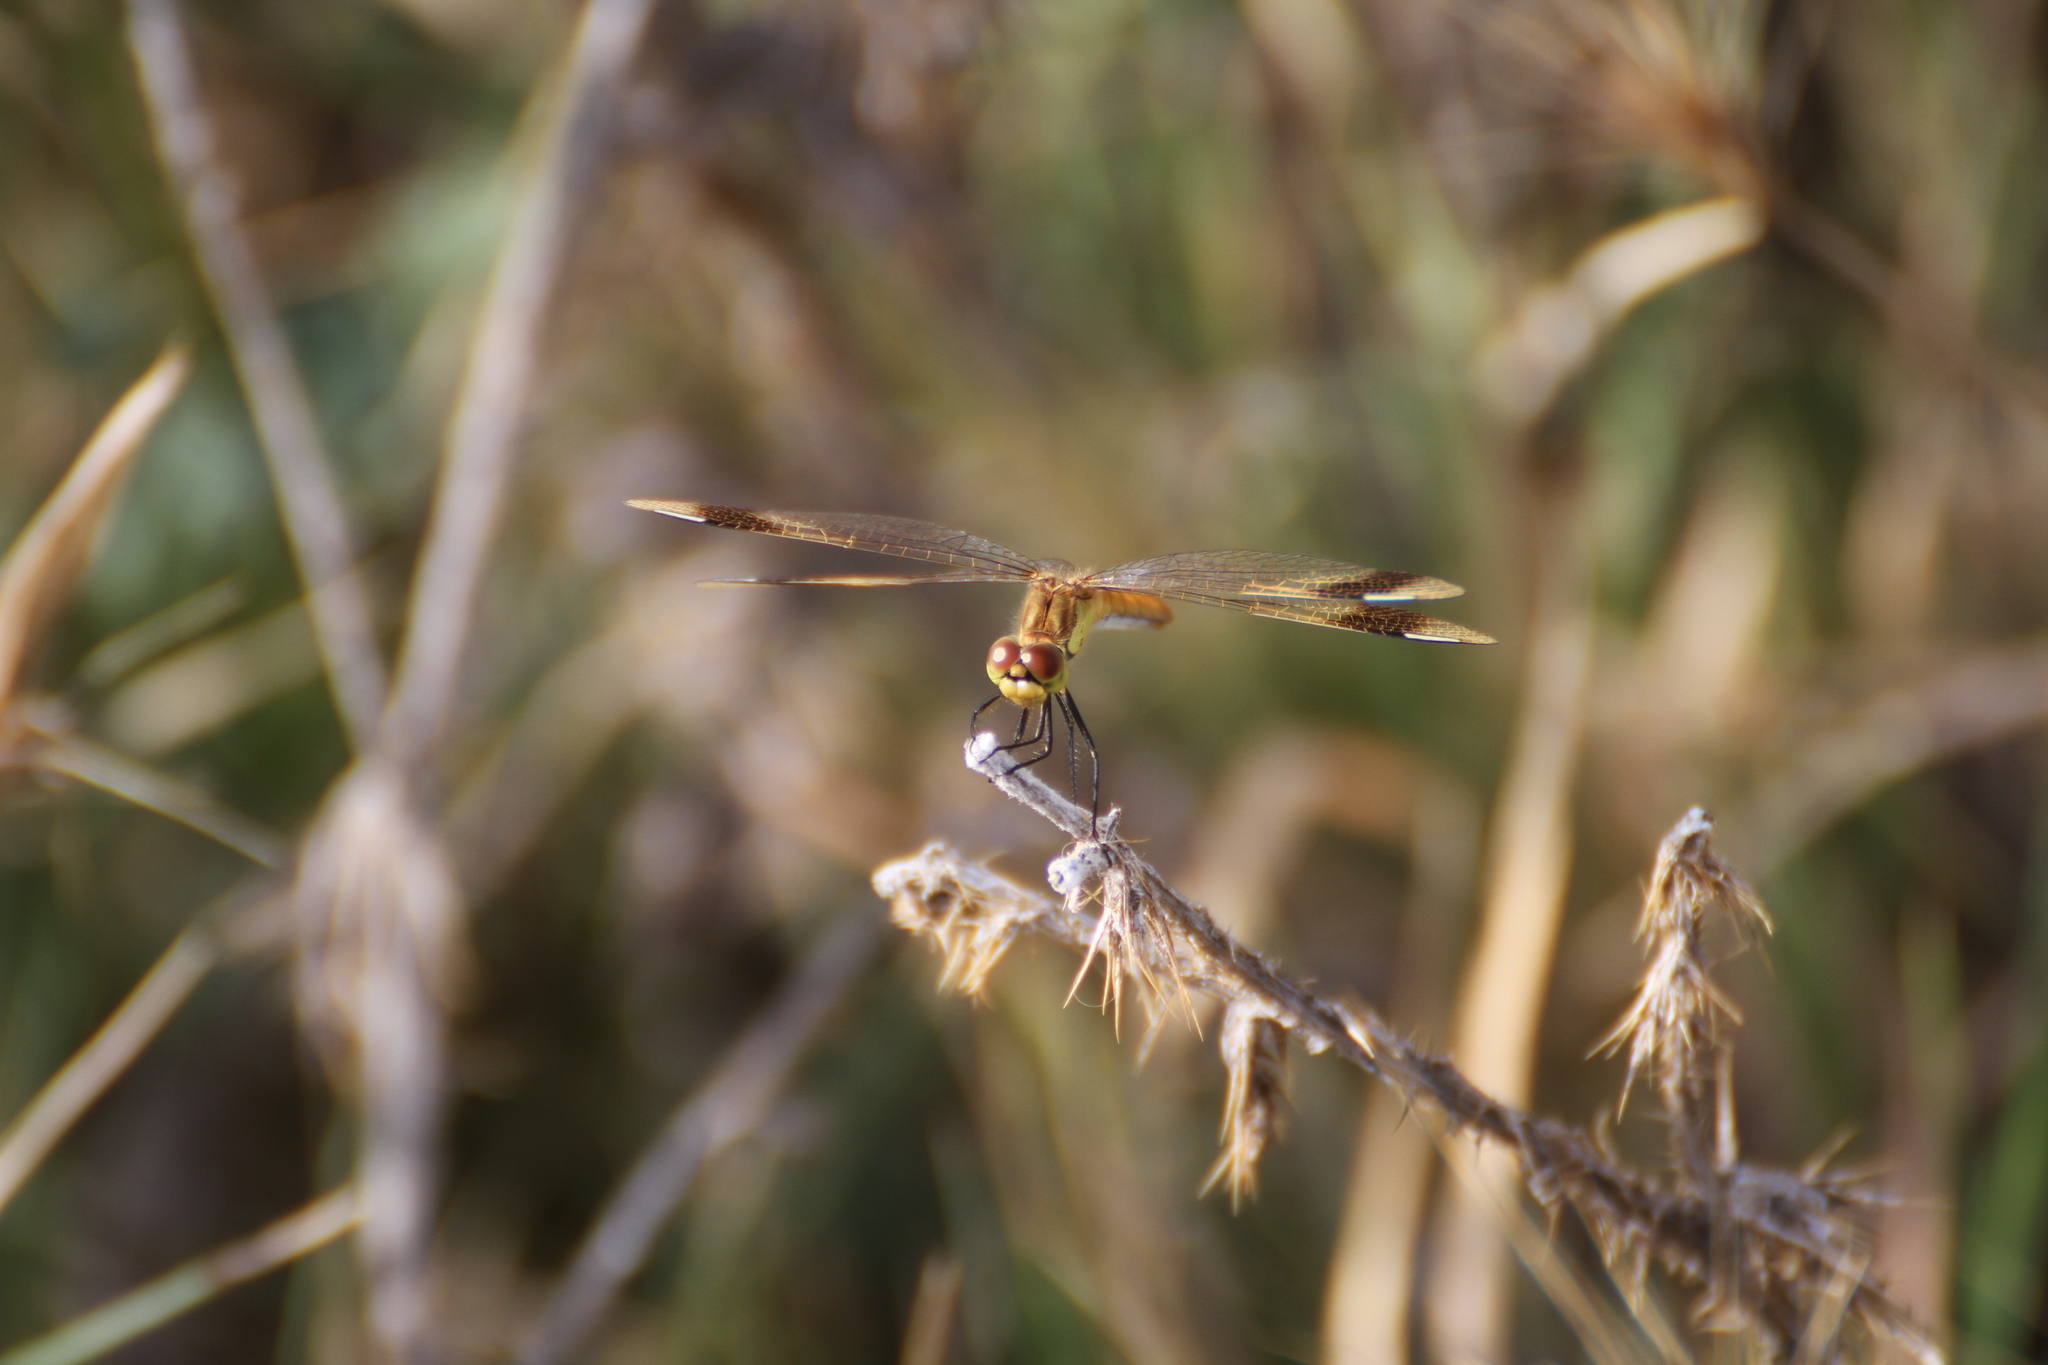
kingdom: Animalia
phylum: Arthropoda
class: Insecta
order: Odonata
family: Libellulidae
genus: Sympetrum
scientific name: Sympetrum pedemontanum
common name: Banded darter
